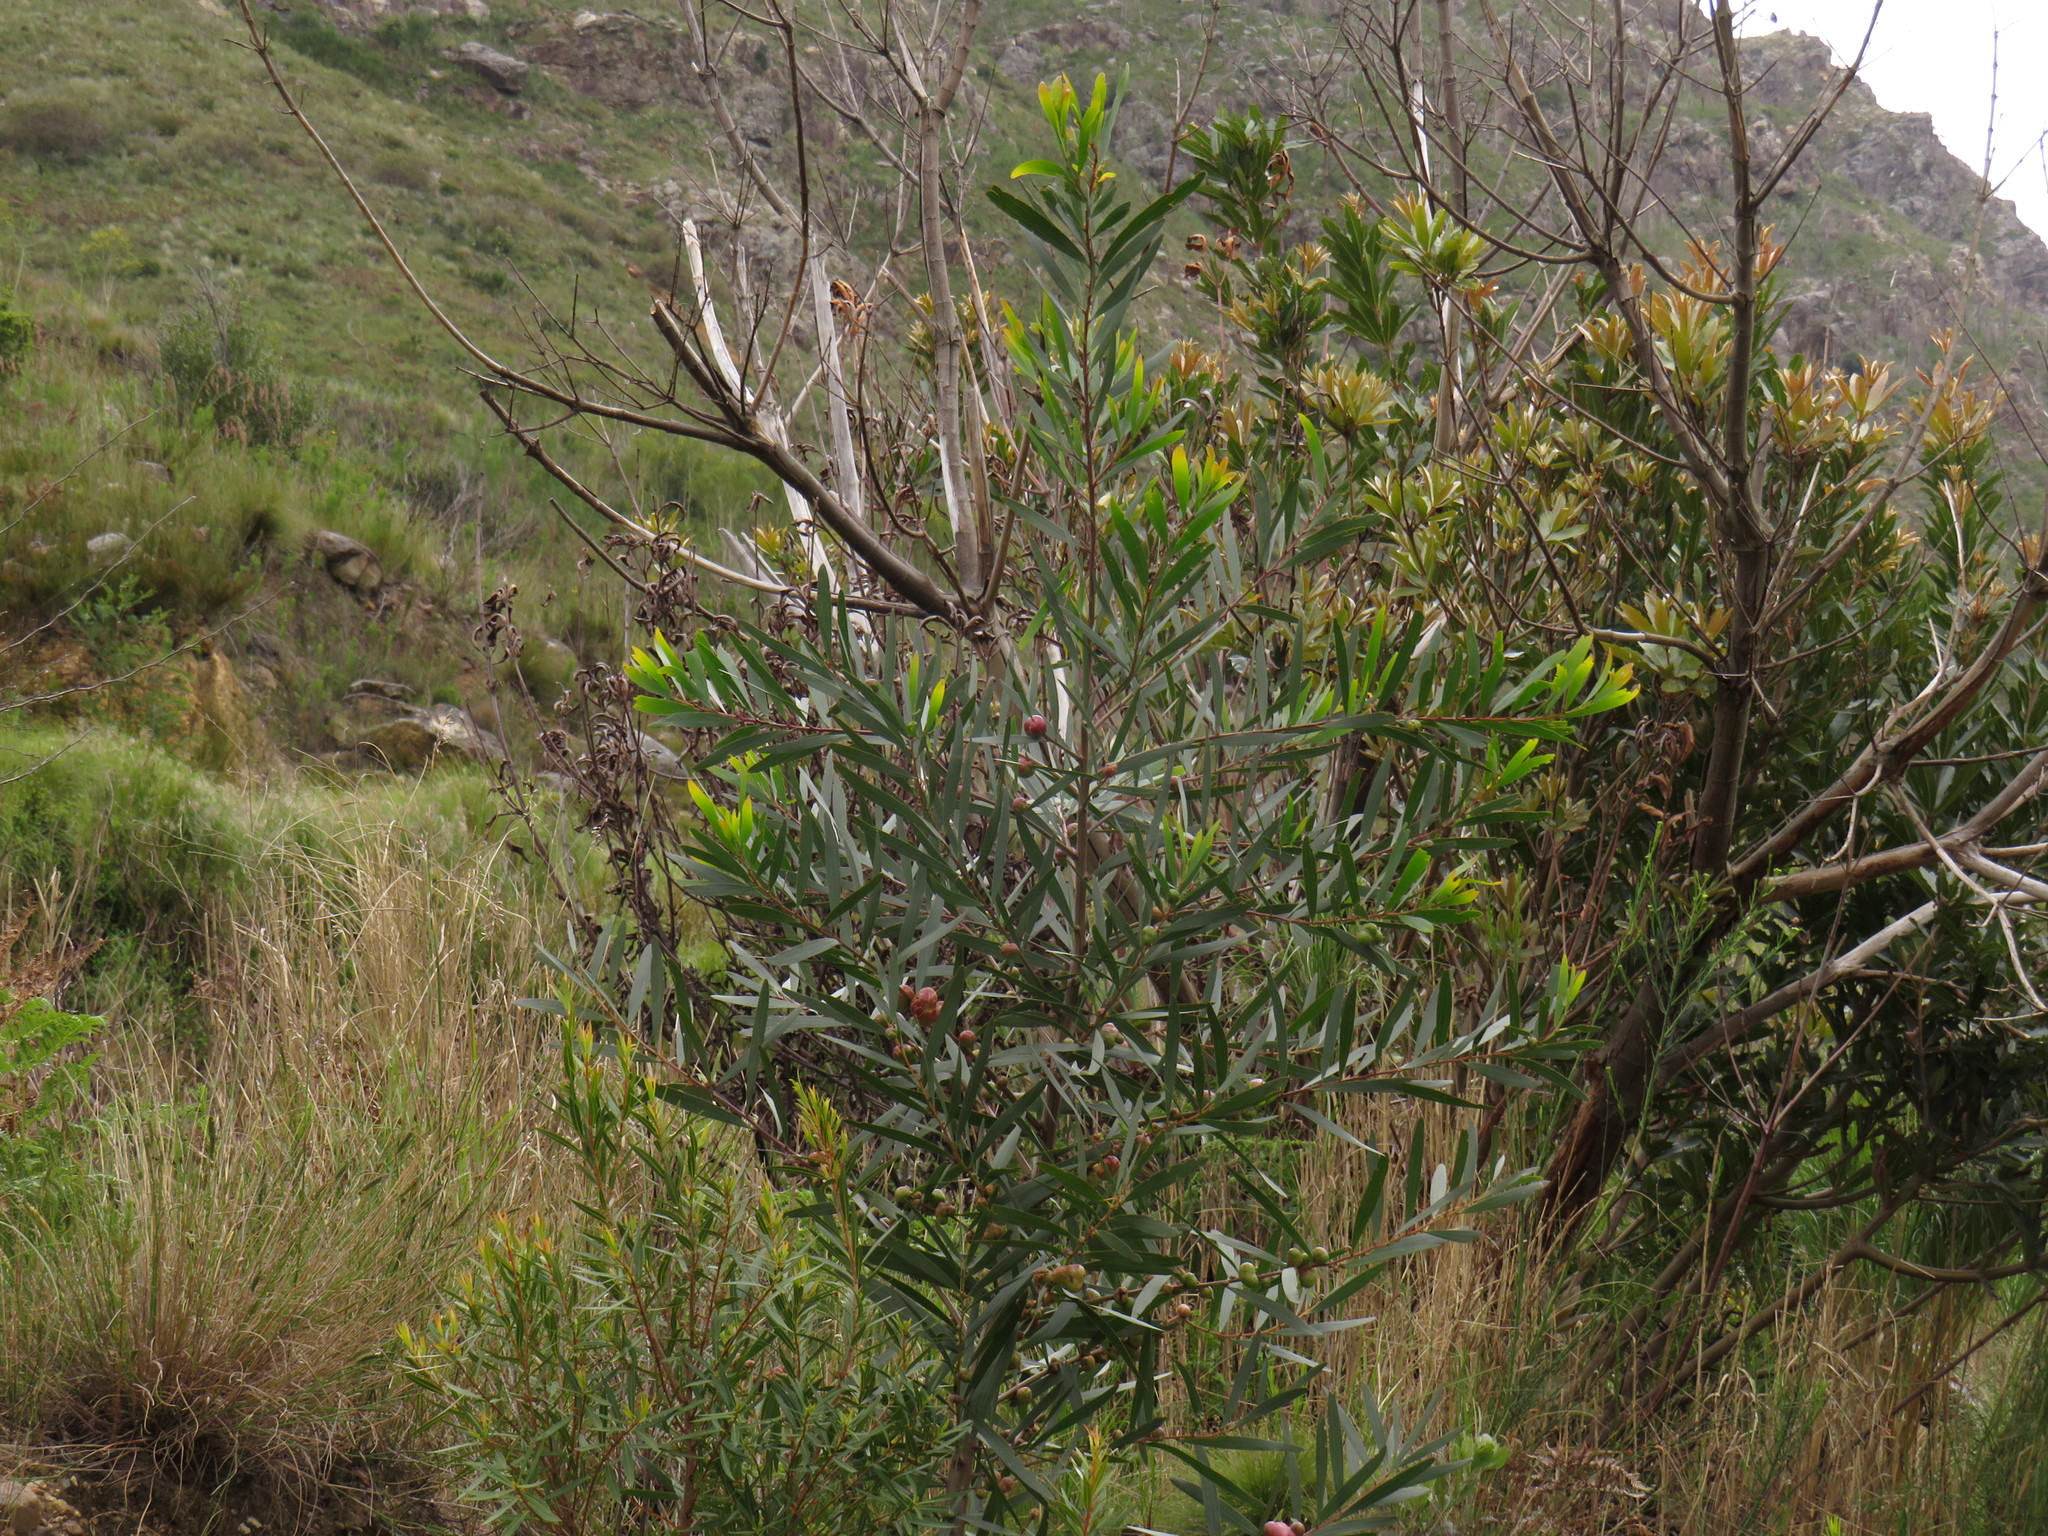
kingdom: Plantae
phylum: Tracheophyta
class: Magnoliopsida
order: Fabales
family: Fabaceae
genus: Acacia
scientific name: Acacia longifolia
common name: Sydney golden wattle
